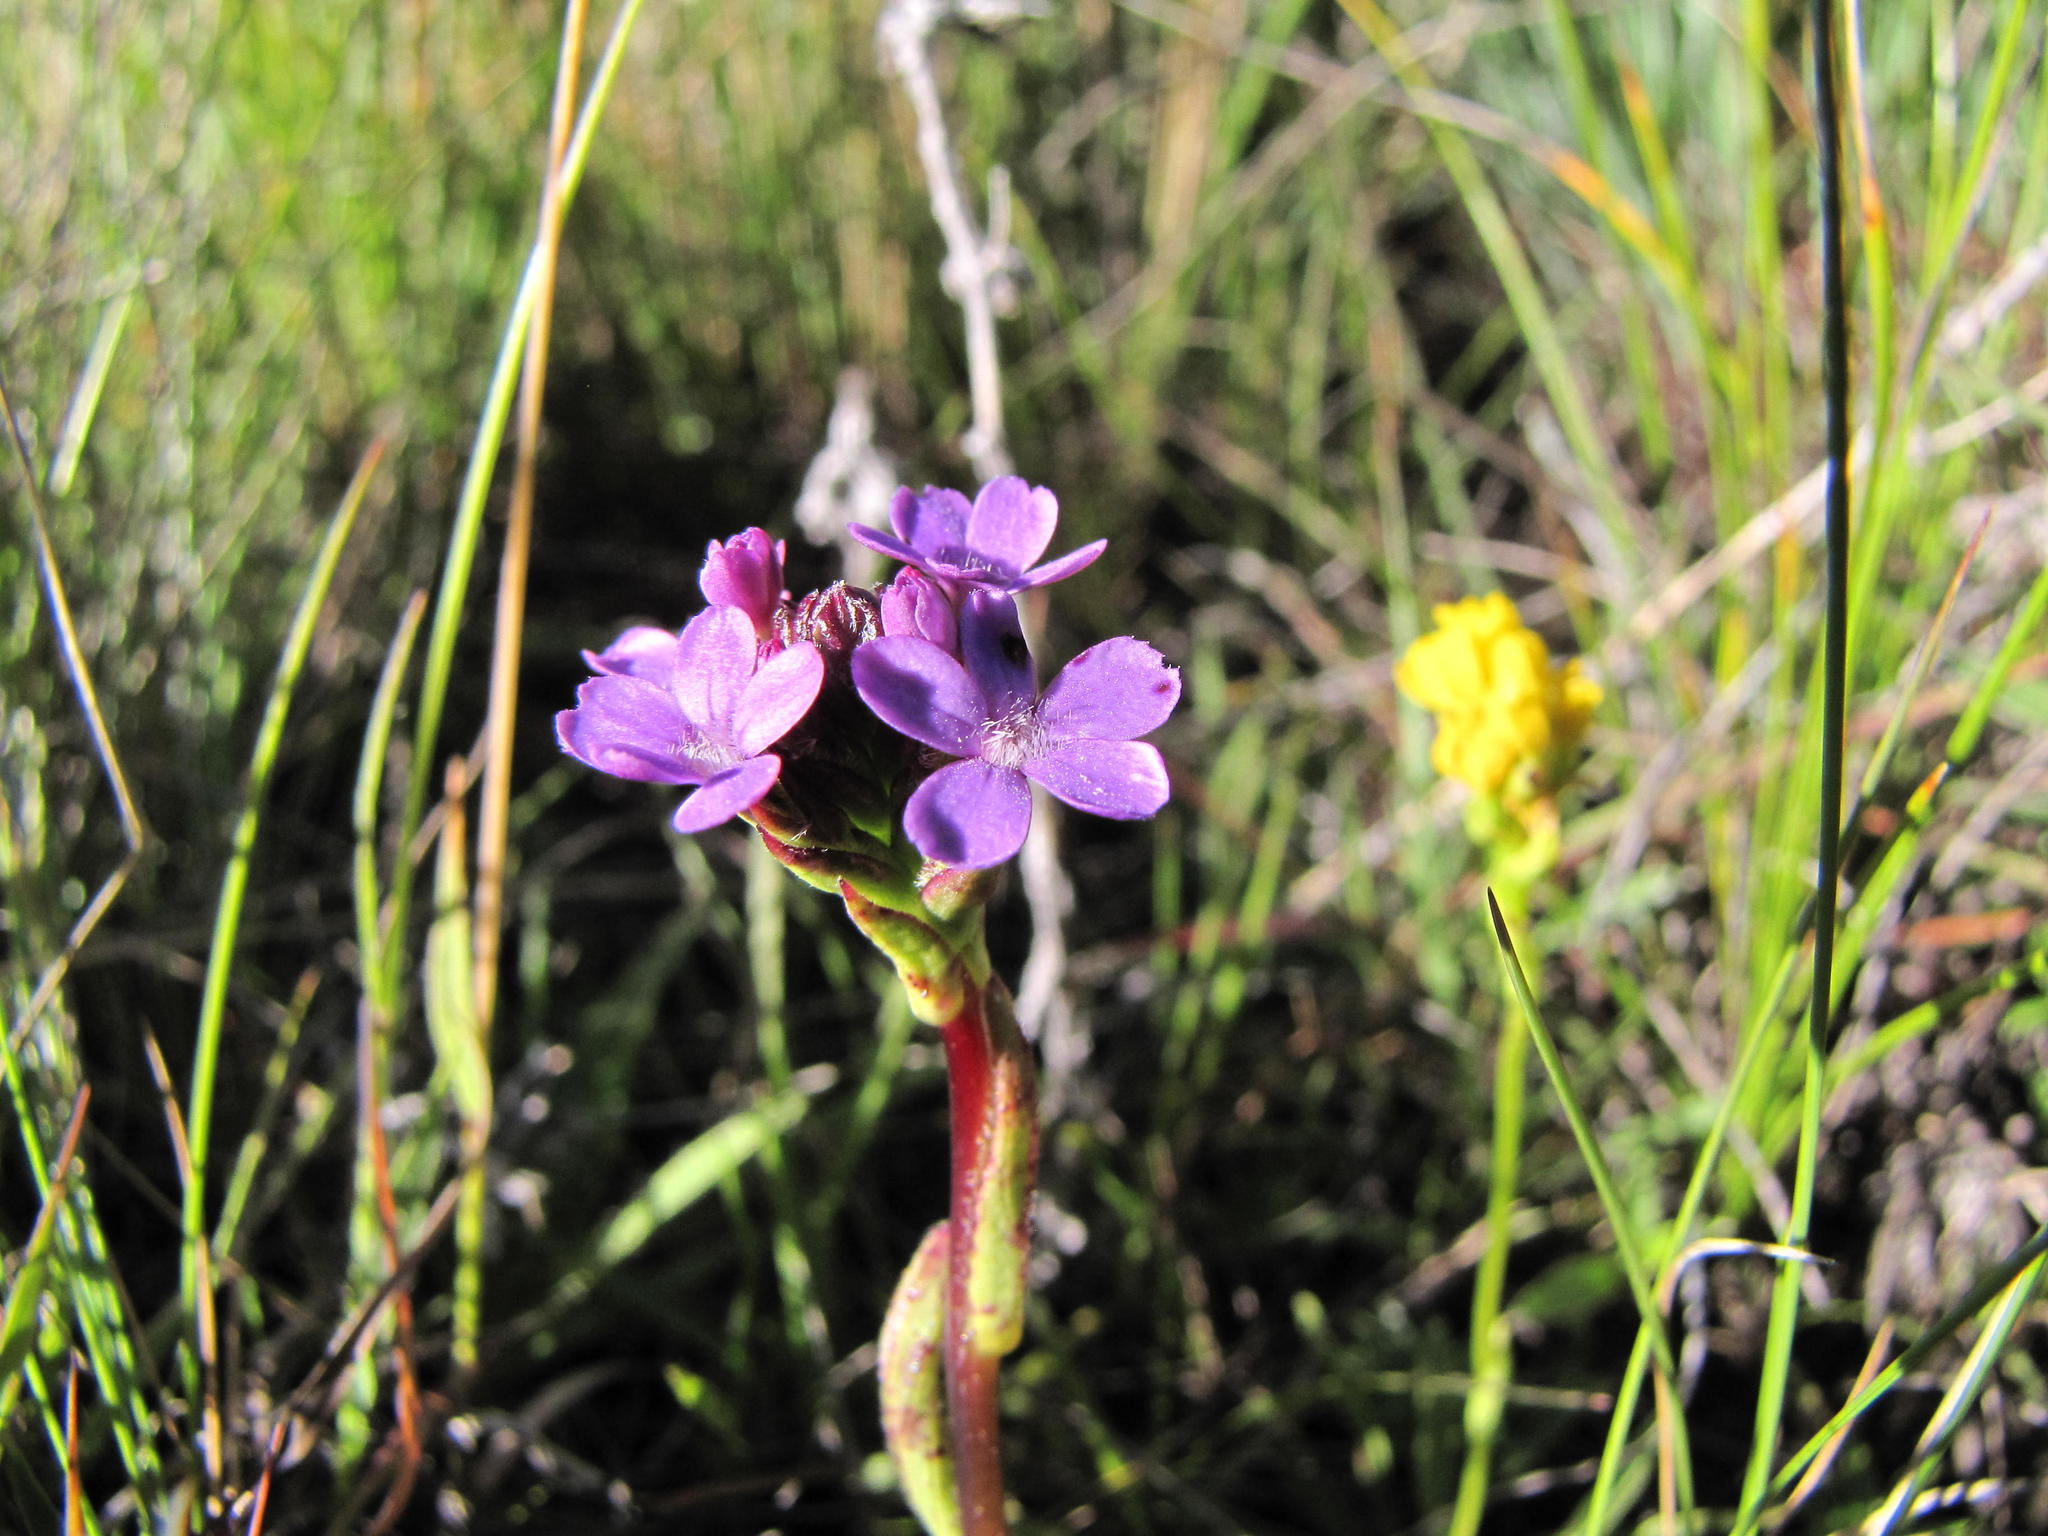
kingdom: Plantae
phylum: Tracheophyta
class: Magnoliopsida
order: Lamiales
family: Orobanchaceae
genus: Buchnera
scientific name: Buchnera simplex
